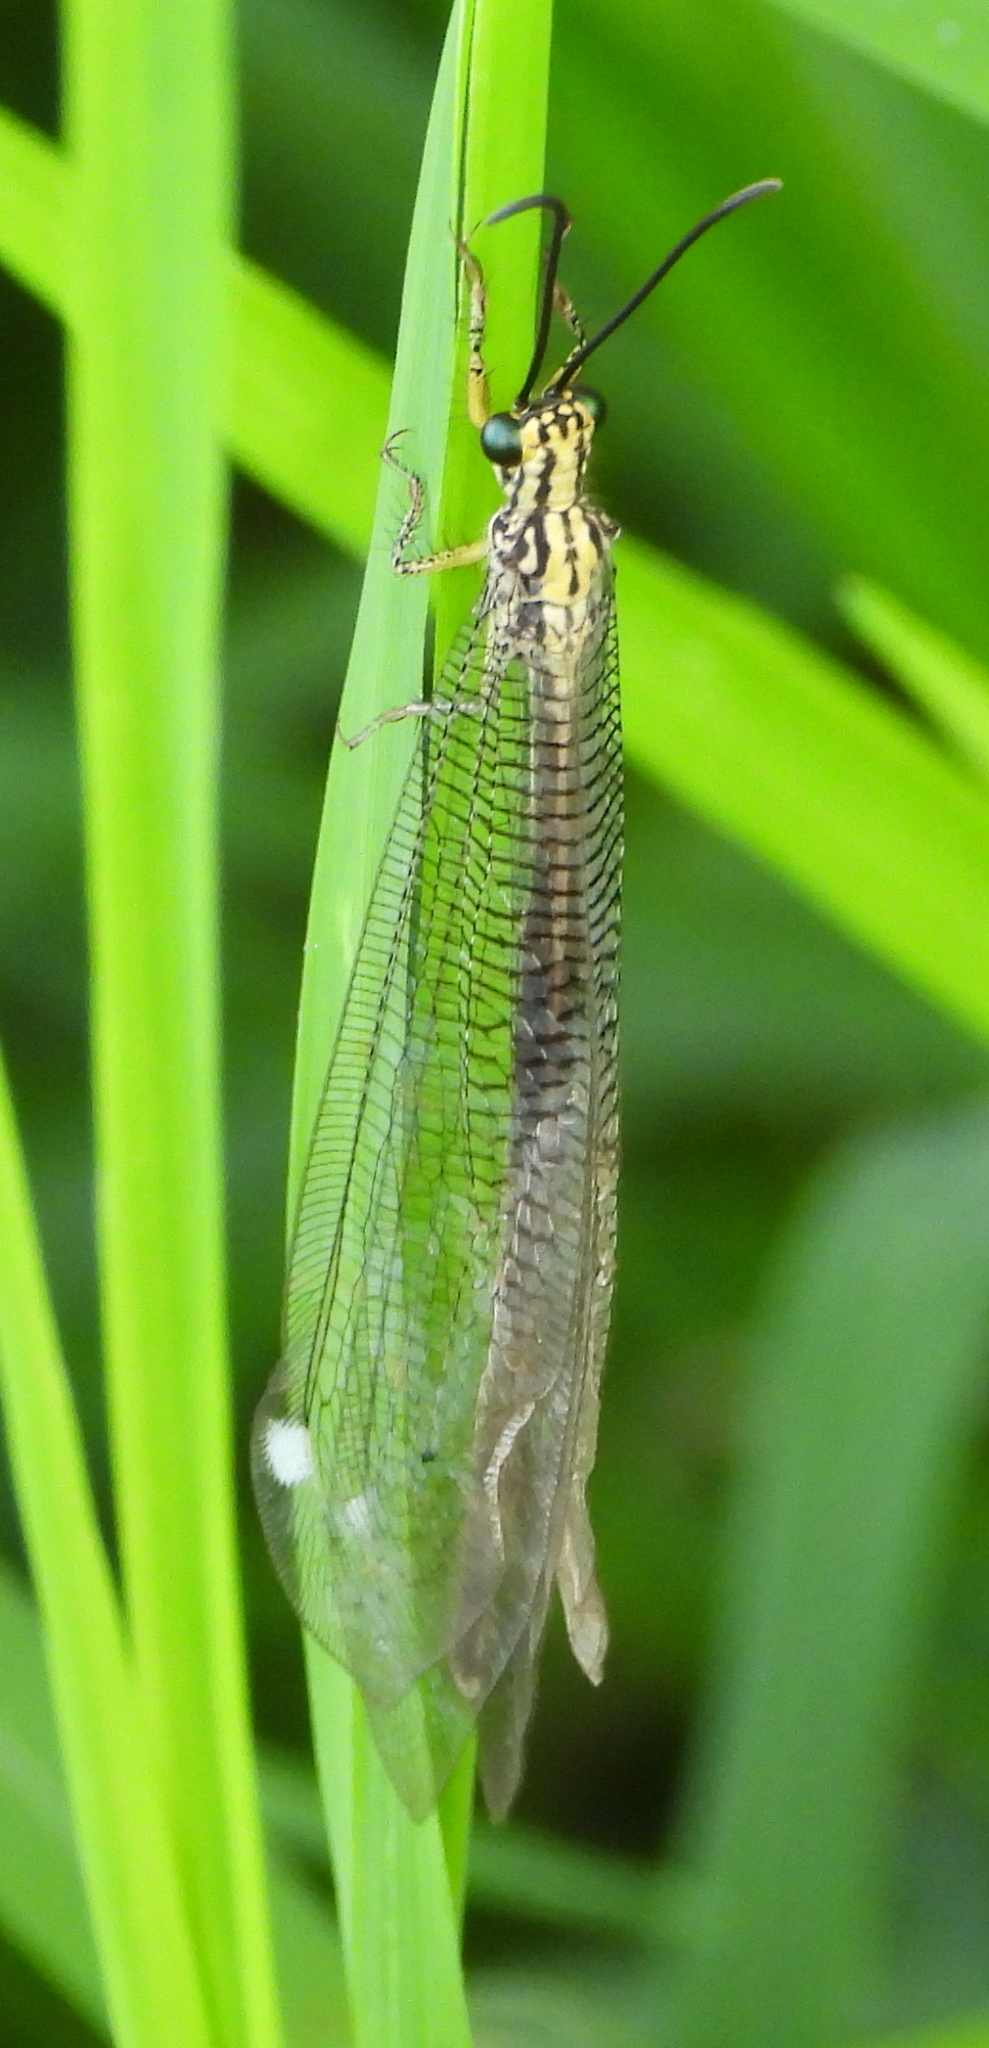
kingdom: Animalia
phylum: Arthropoda
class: Insecta
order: Neuroptera
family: Myrmeleontidae
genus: Banyutus
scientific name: Banyutus lethalis
